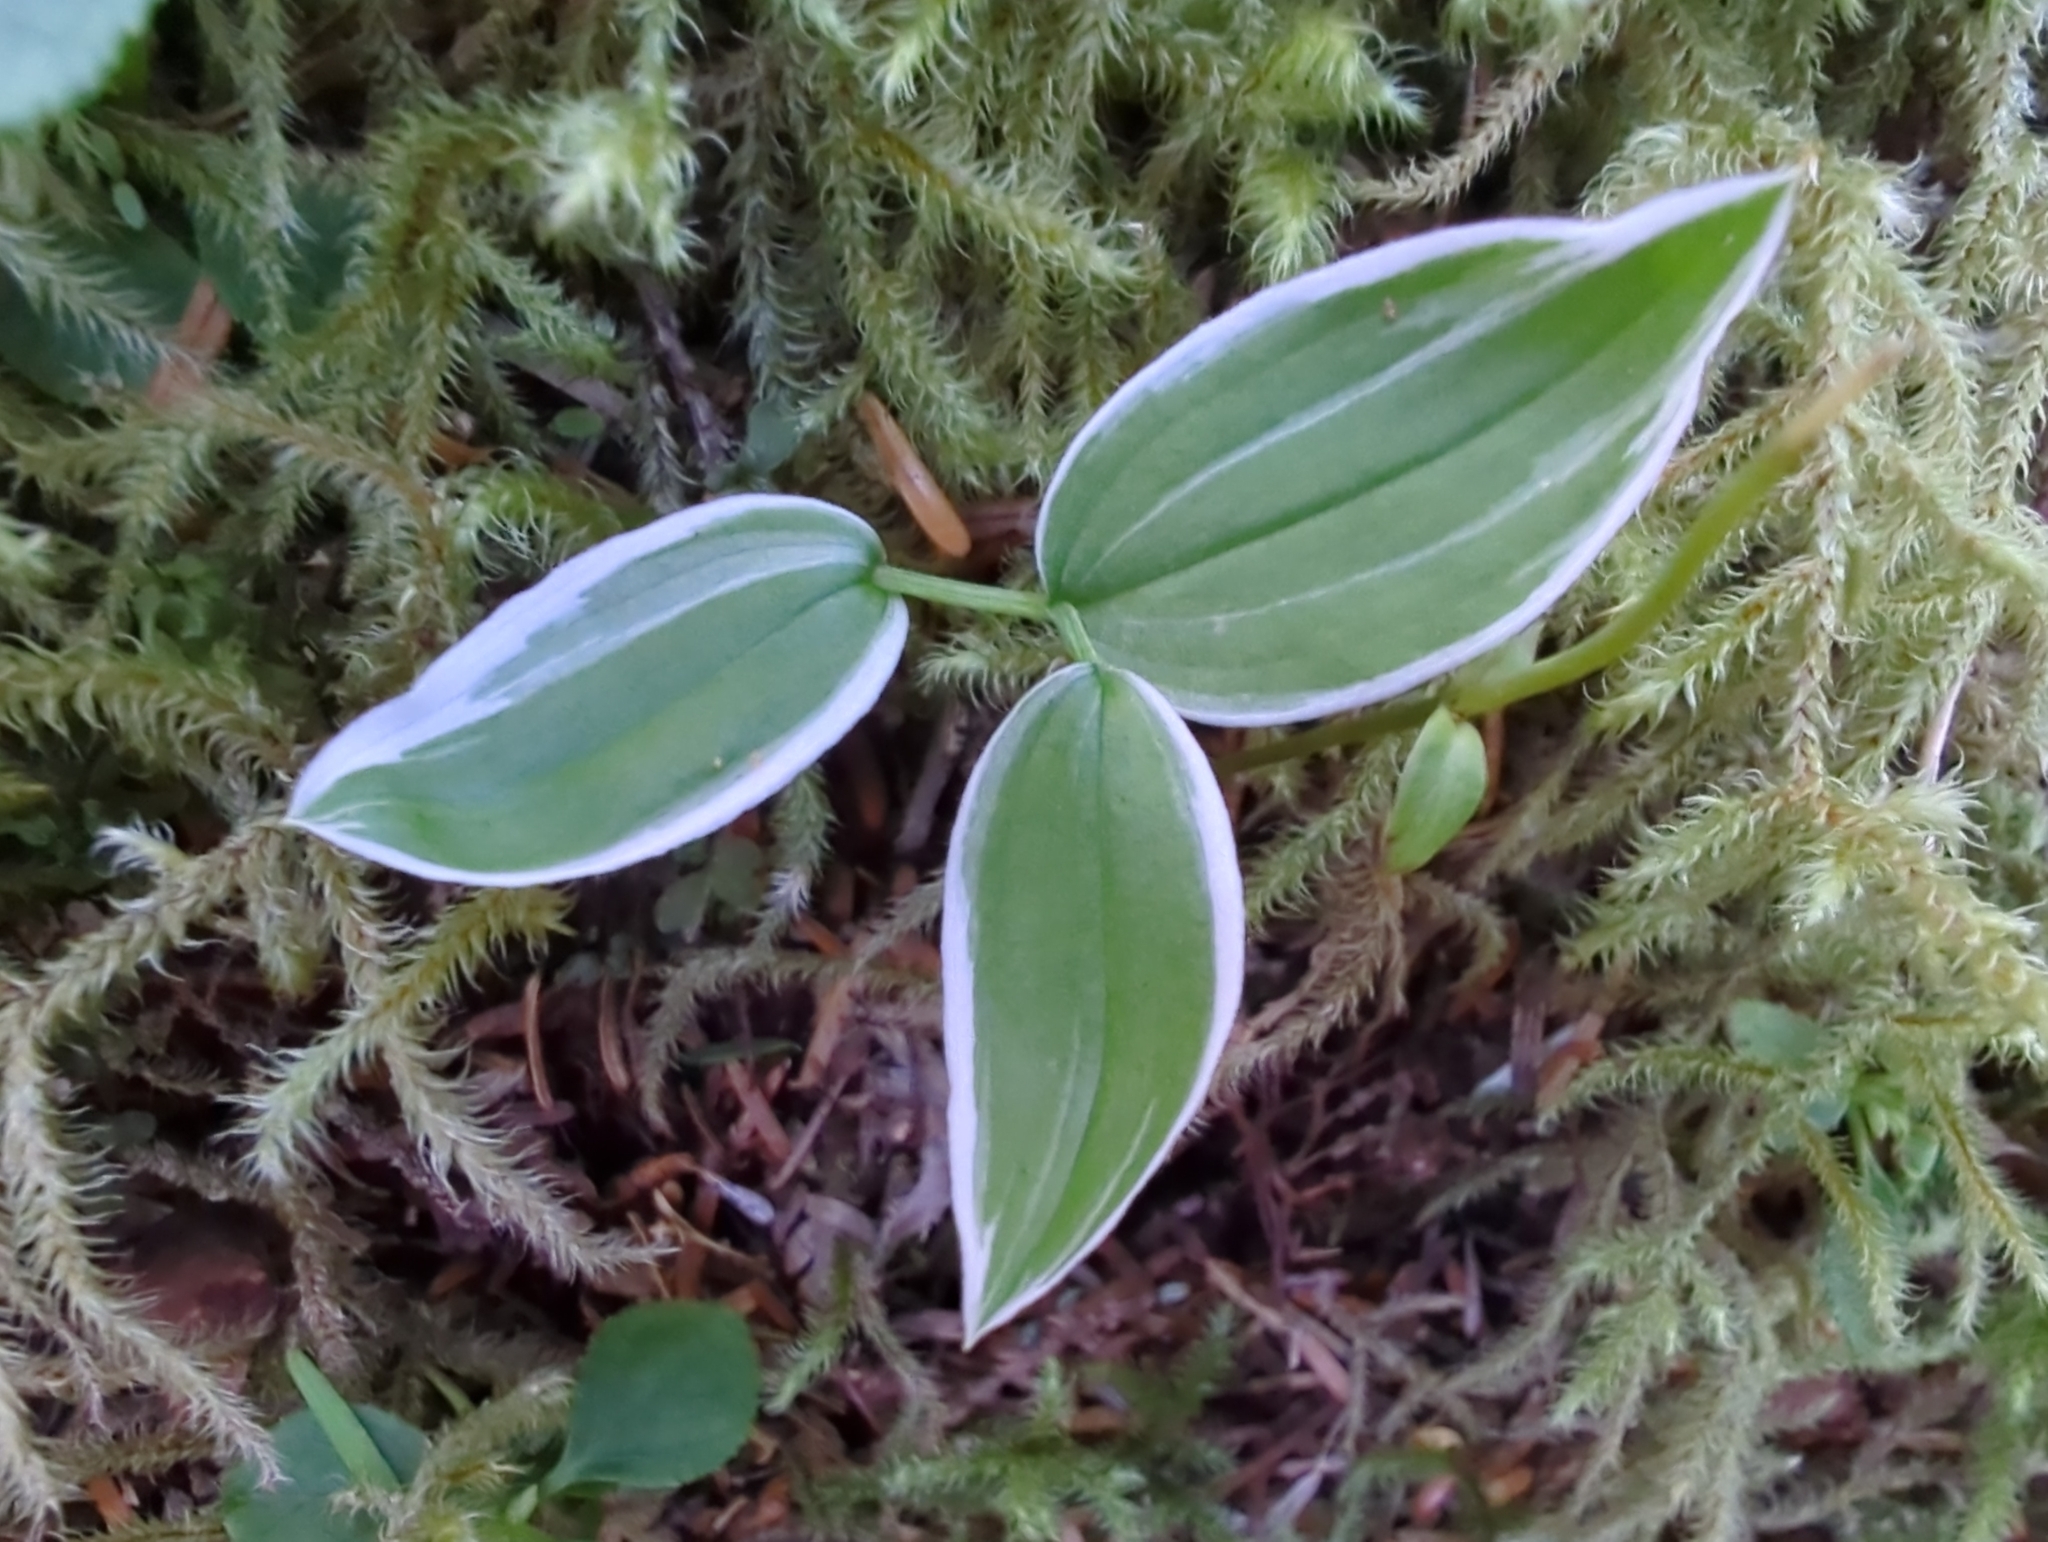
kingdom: Viruses
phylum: Pisuviricota
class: Stelpaviricetes
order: Patatavirales
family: Potyviridae
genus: Potyvirus
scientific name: Potyvirus Twisted-stalk chlorotic streak virus
